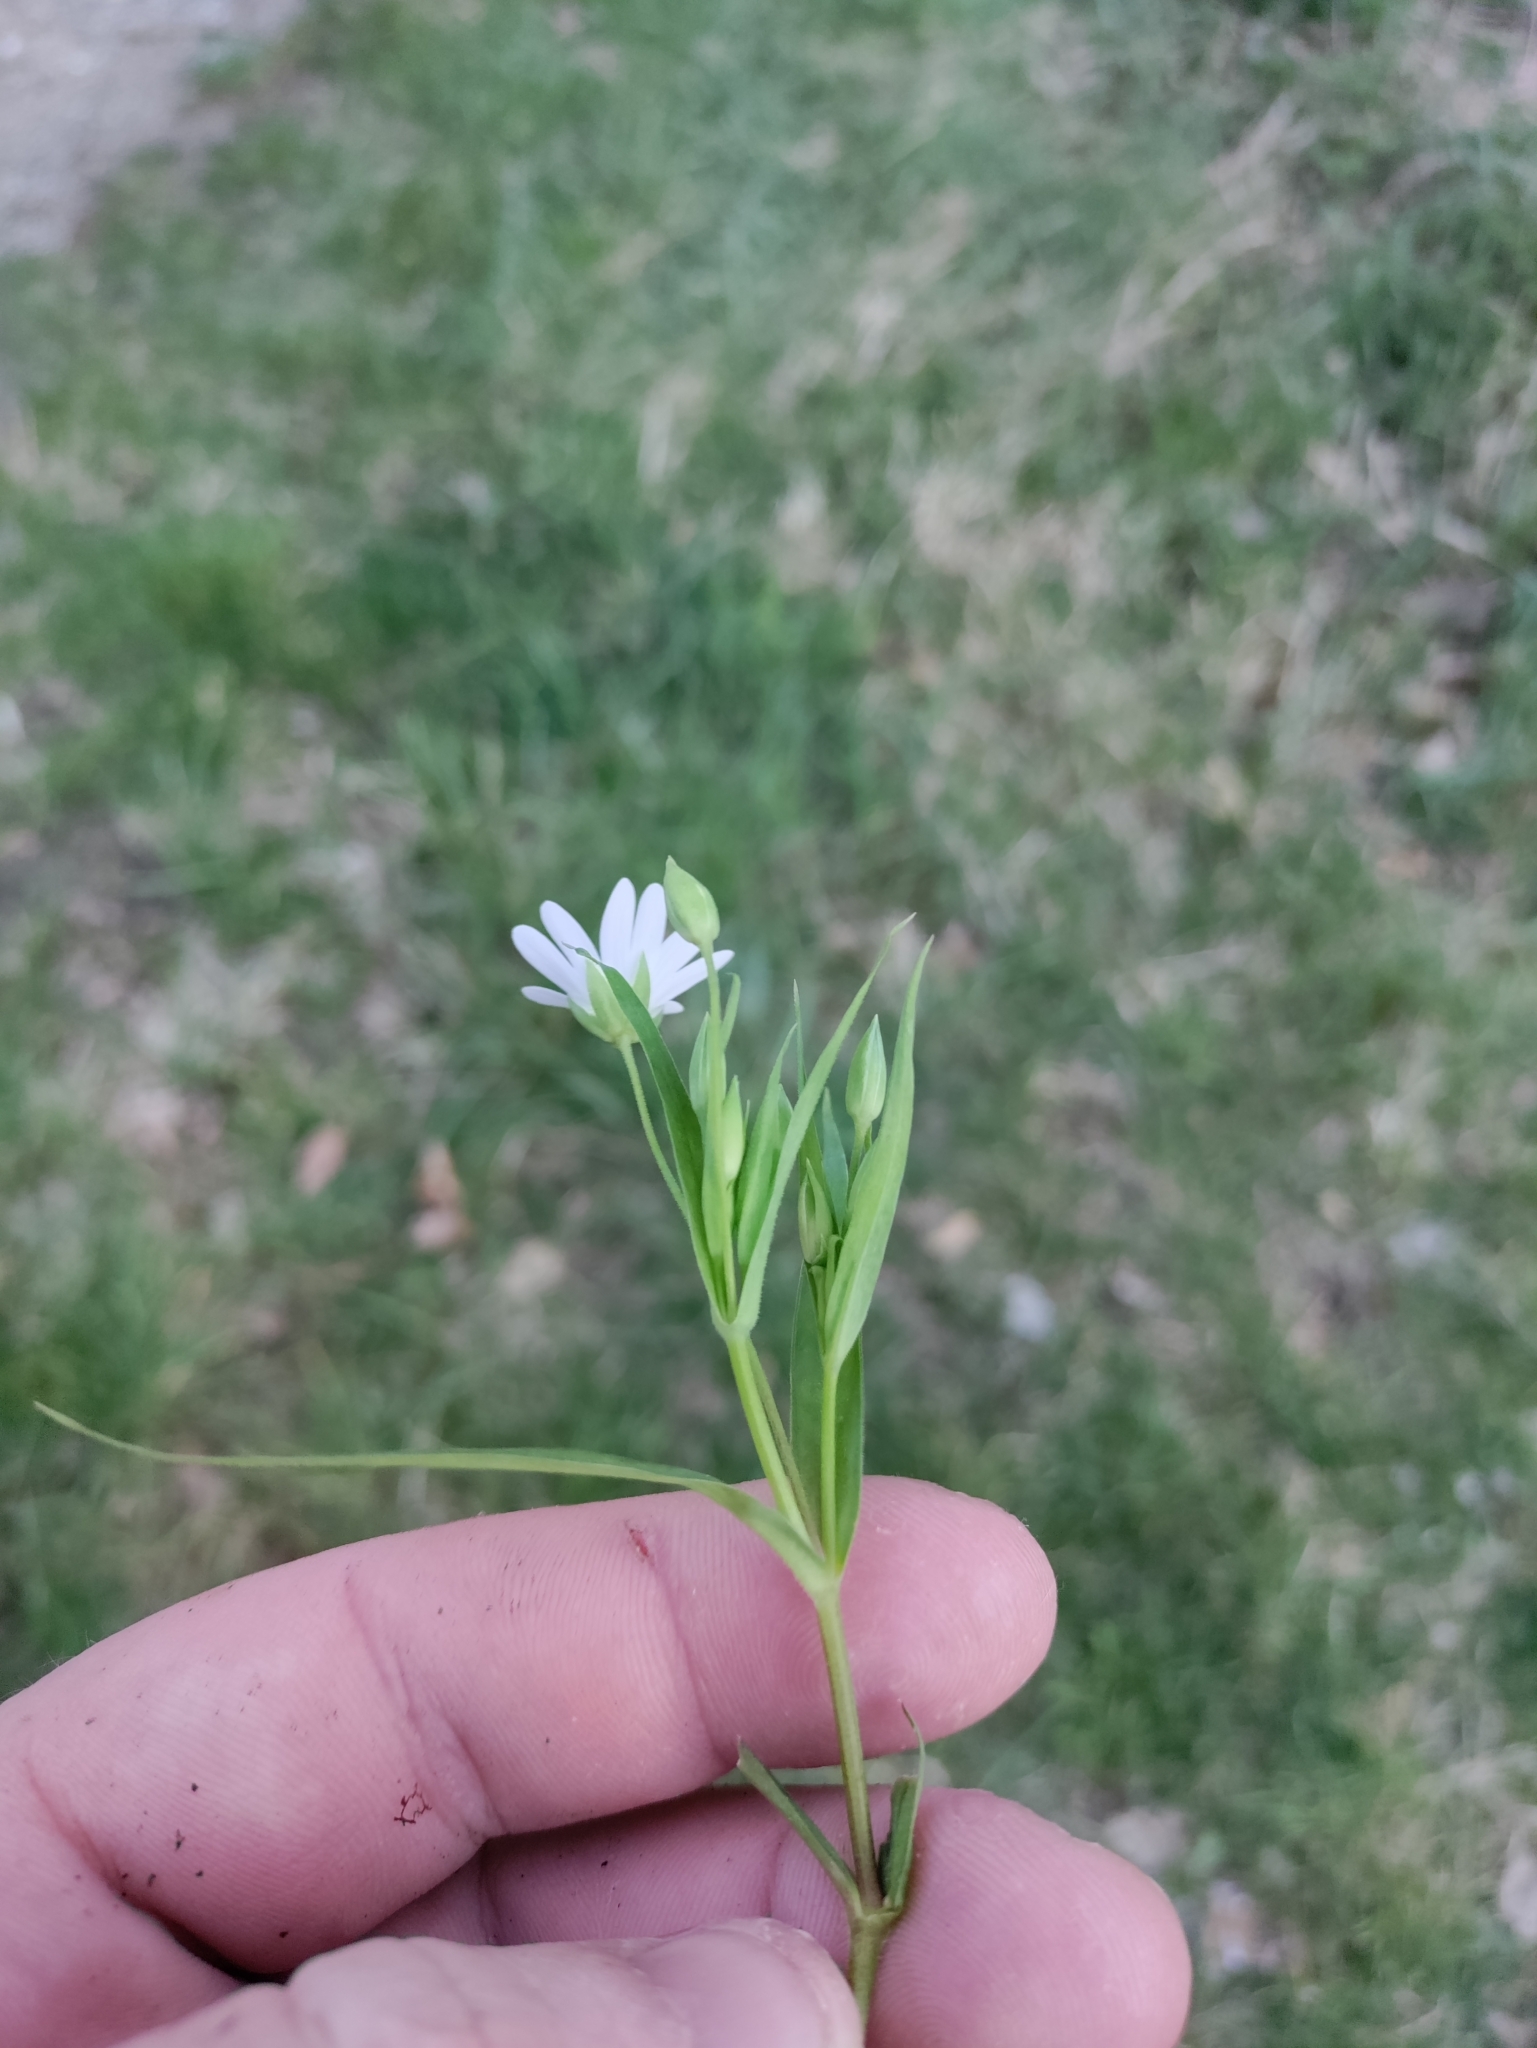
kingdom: Plantae
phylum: Tracheophyta
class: Magnoliopsida
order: Caryophyllales
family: Caryophyllaceae
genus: Rabelera
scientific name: Rabelera holostea
